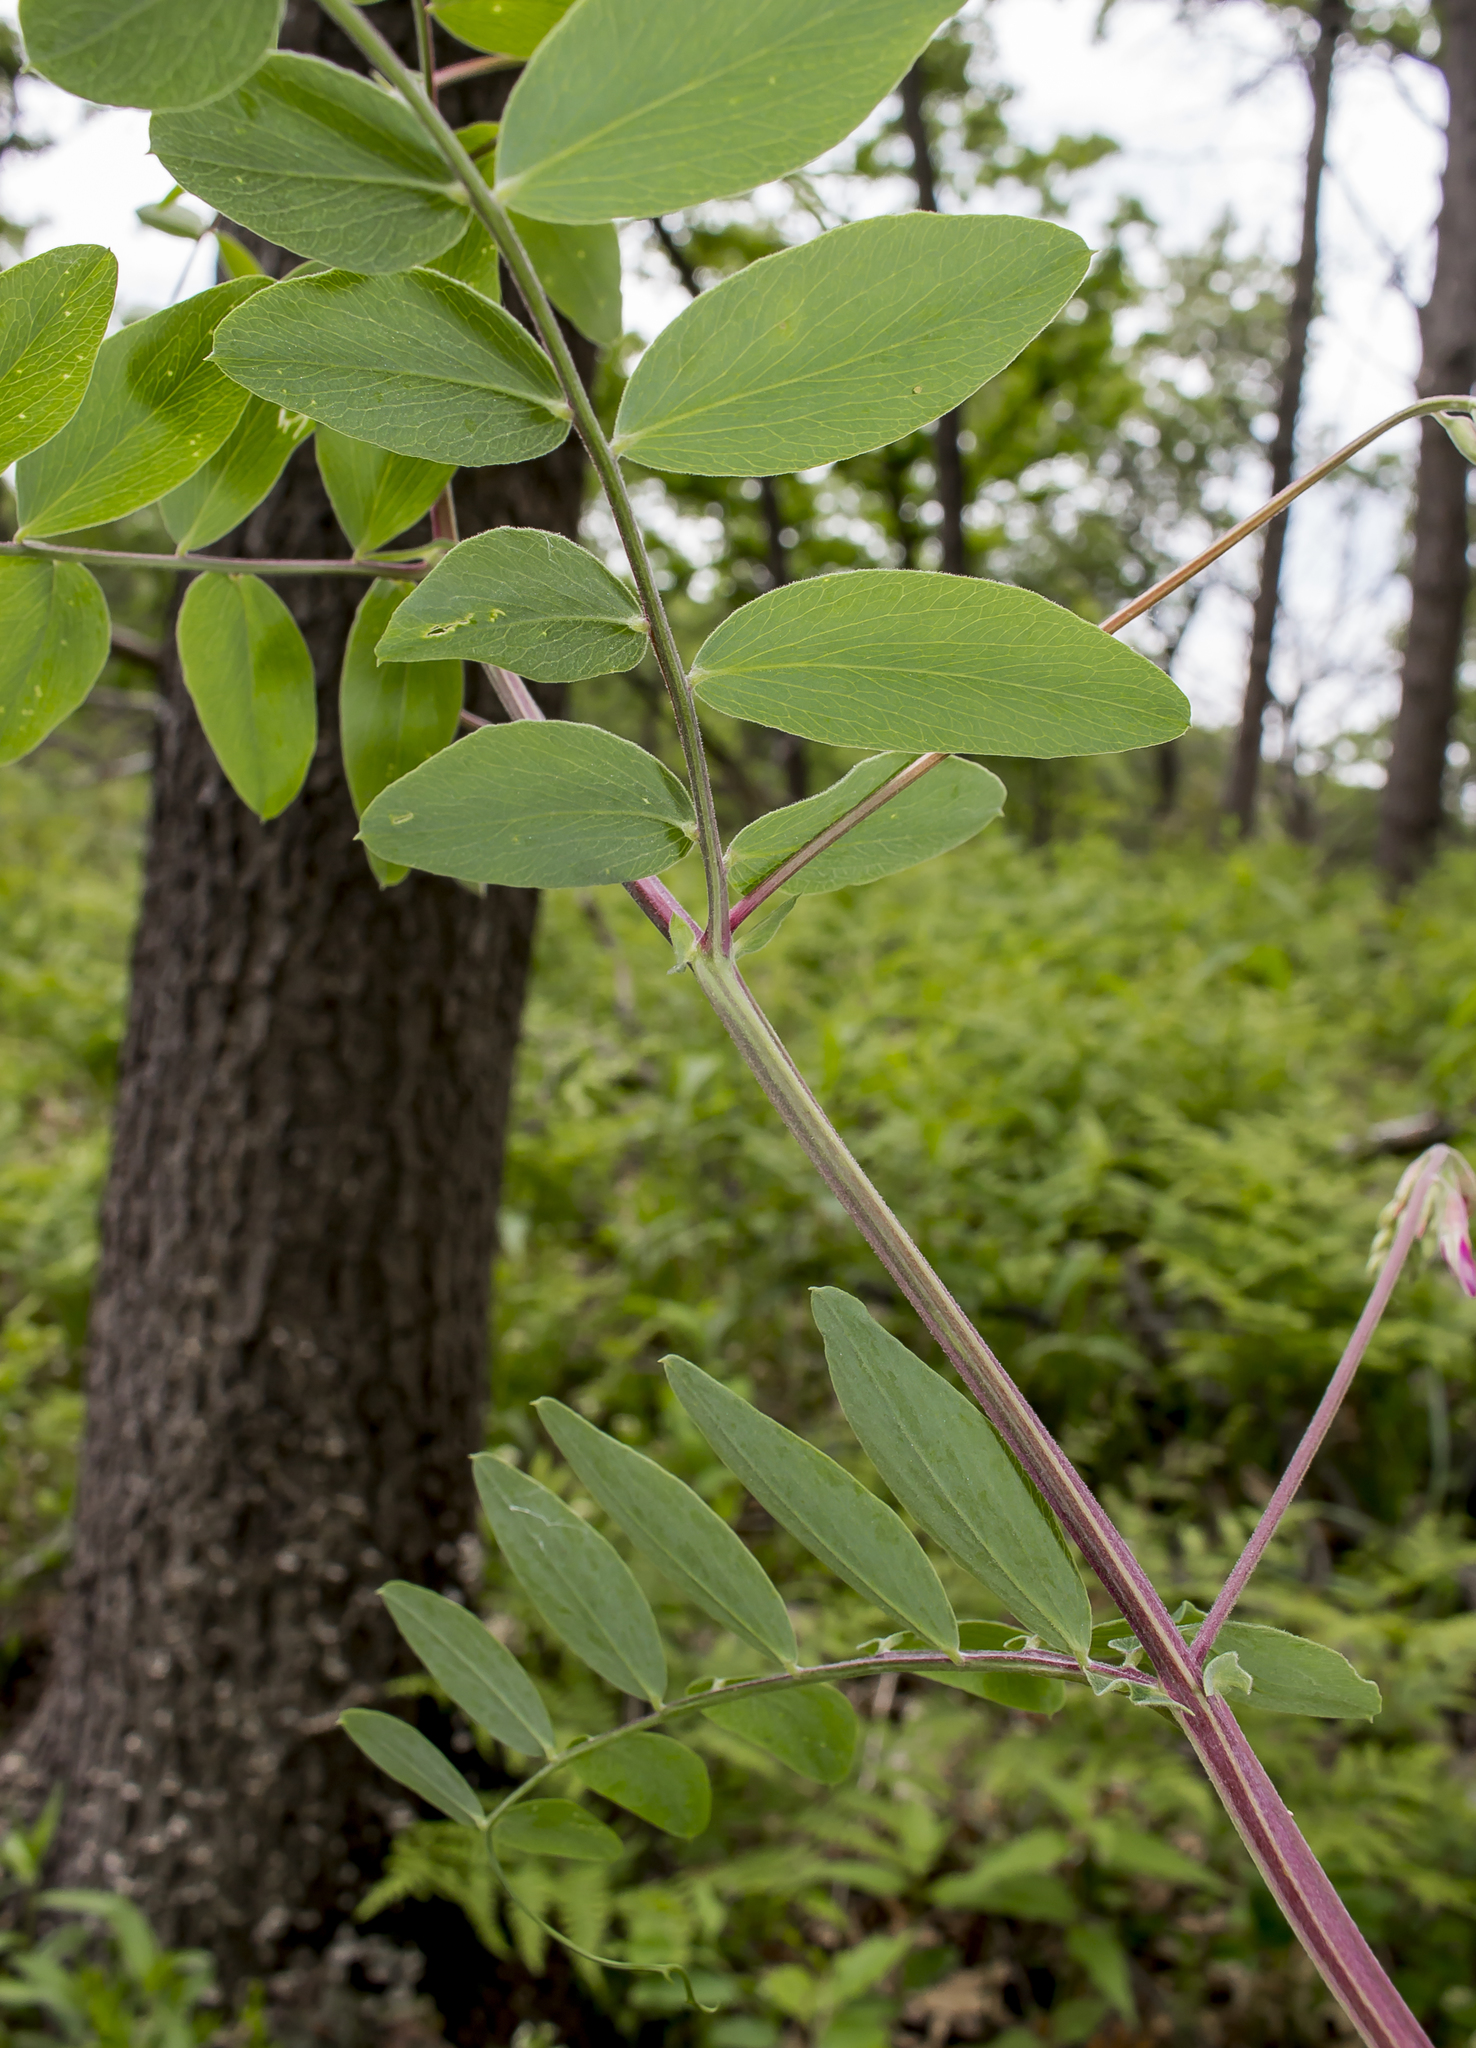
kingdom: Plantae
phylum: Tracheophyta
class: Magnoliopsida
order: Fabales
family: Fabaceae
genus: Lathyrus
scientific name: Lathyrus venosus
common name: Forest-pea
